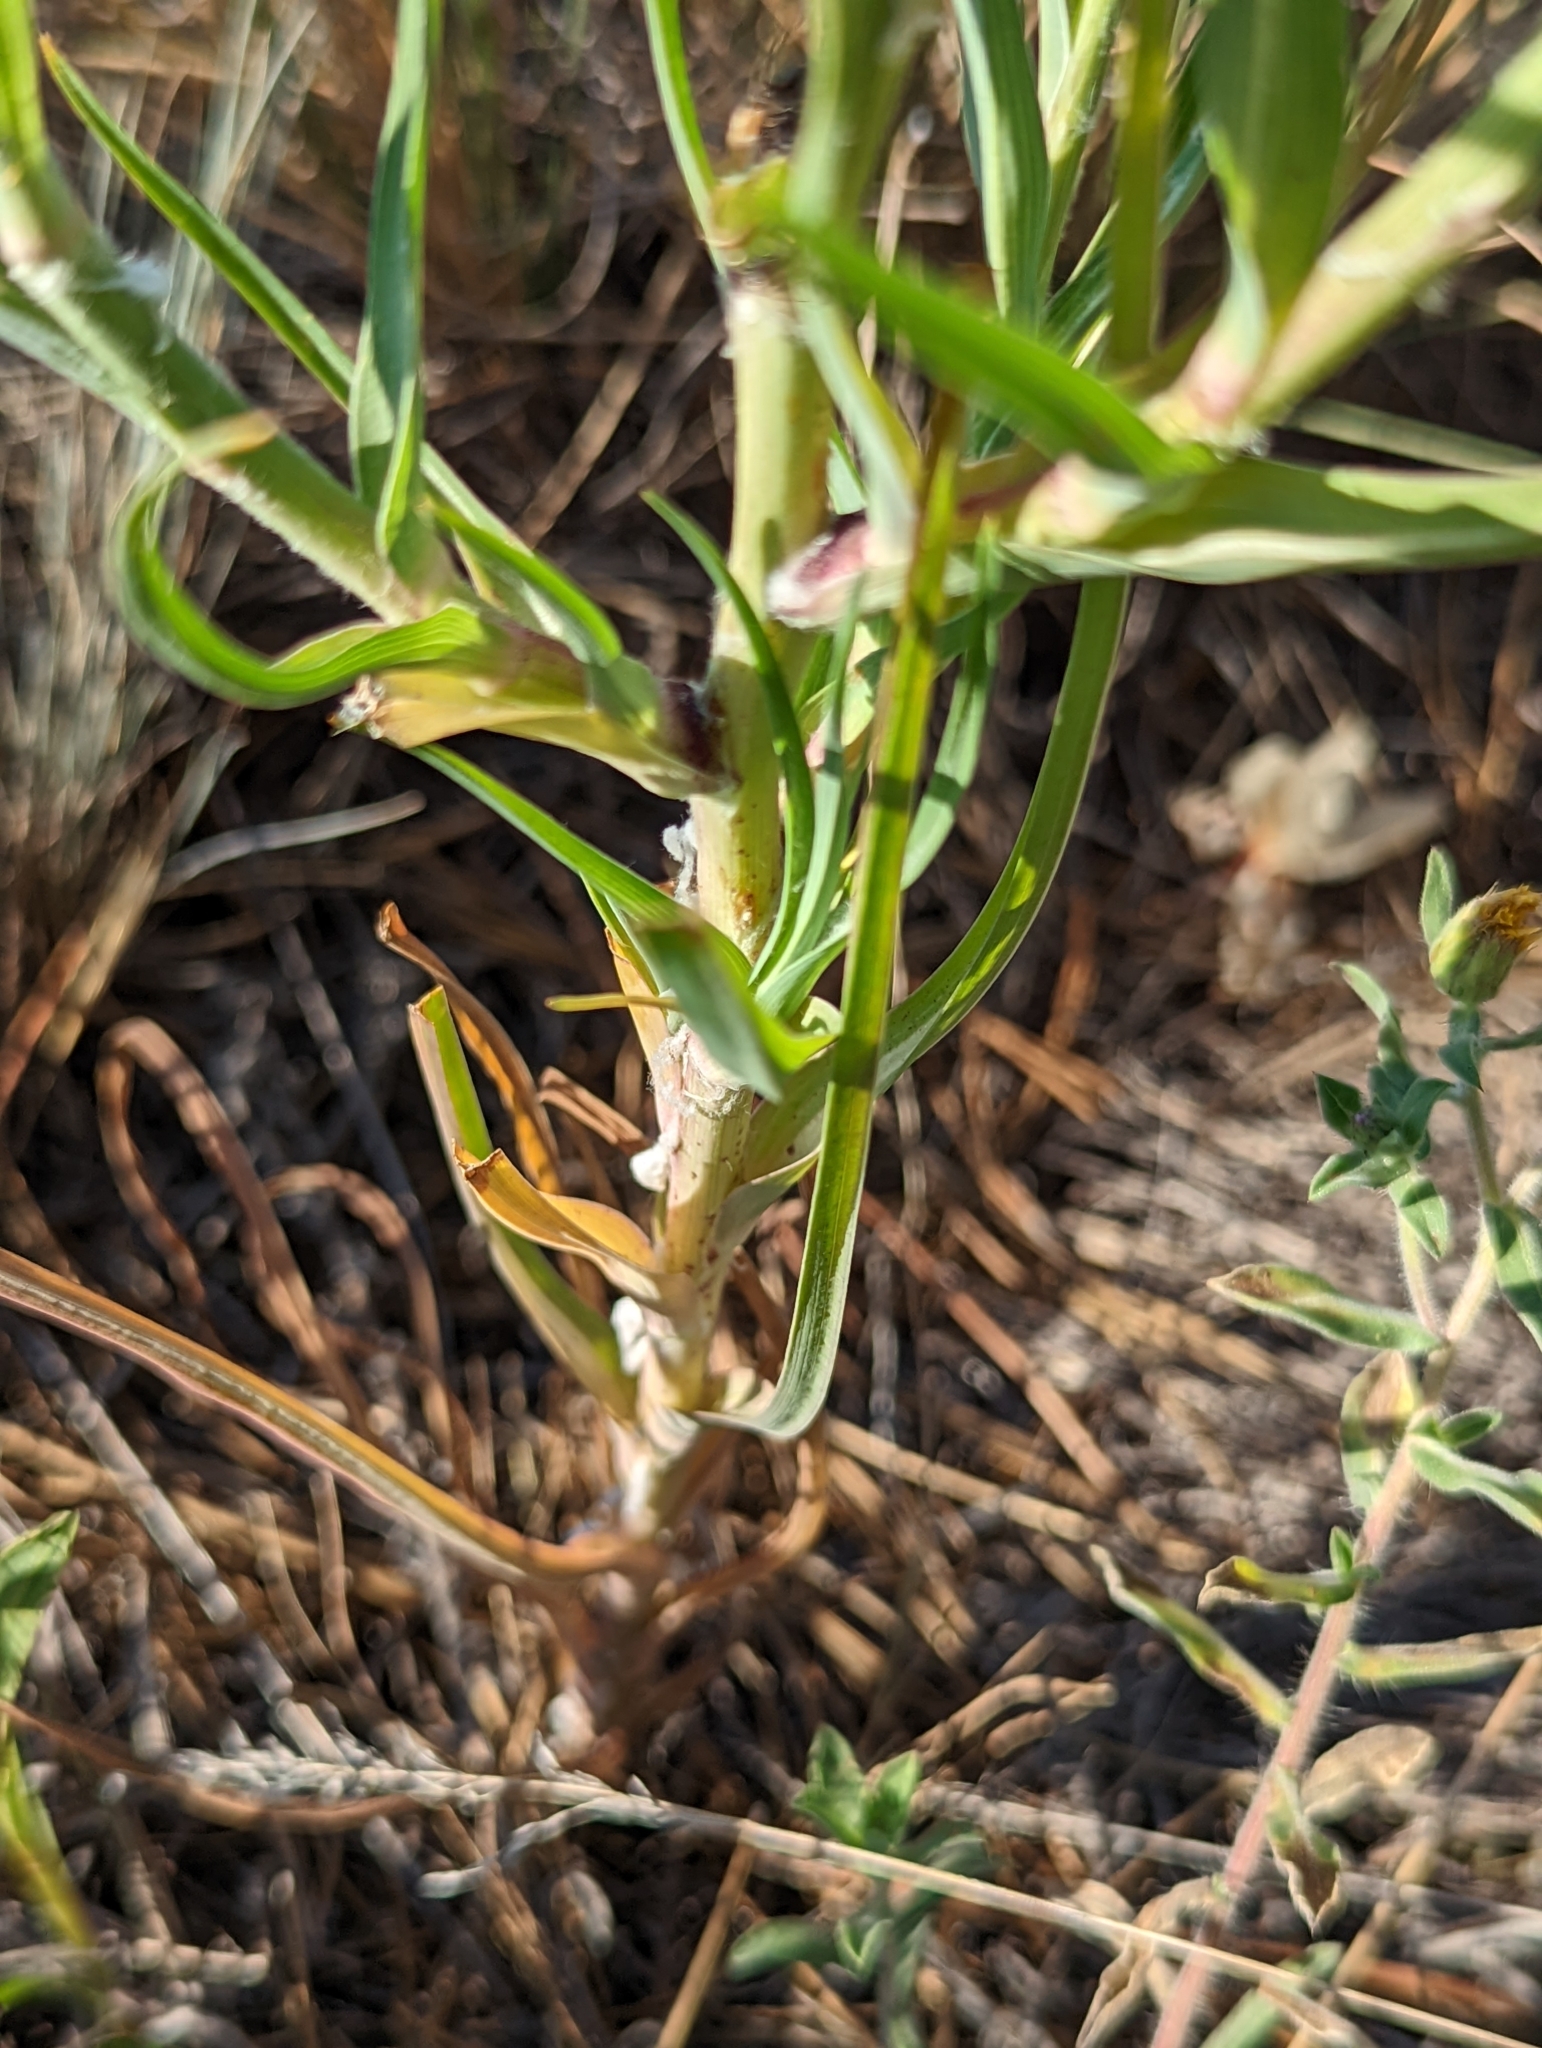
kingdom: Plantae
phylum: Tracheophyta
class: Magnoliopsida
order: Asterales
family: Asteraceae
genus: Tragopogon
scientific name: Tragopogon dubius
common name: Yellow salsify
